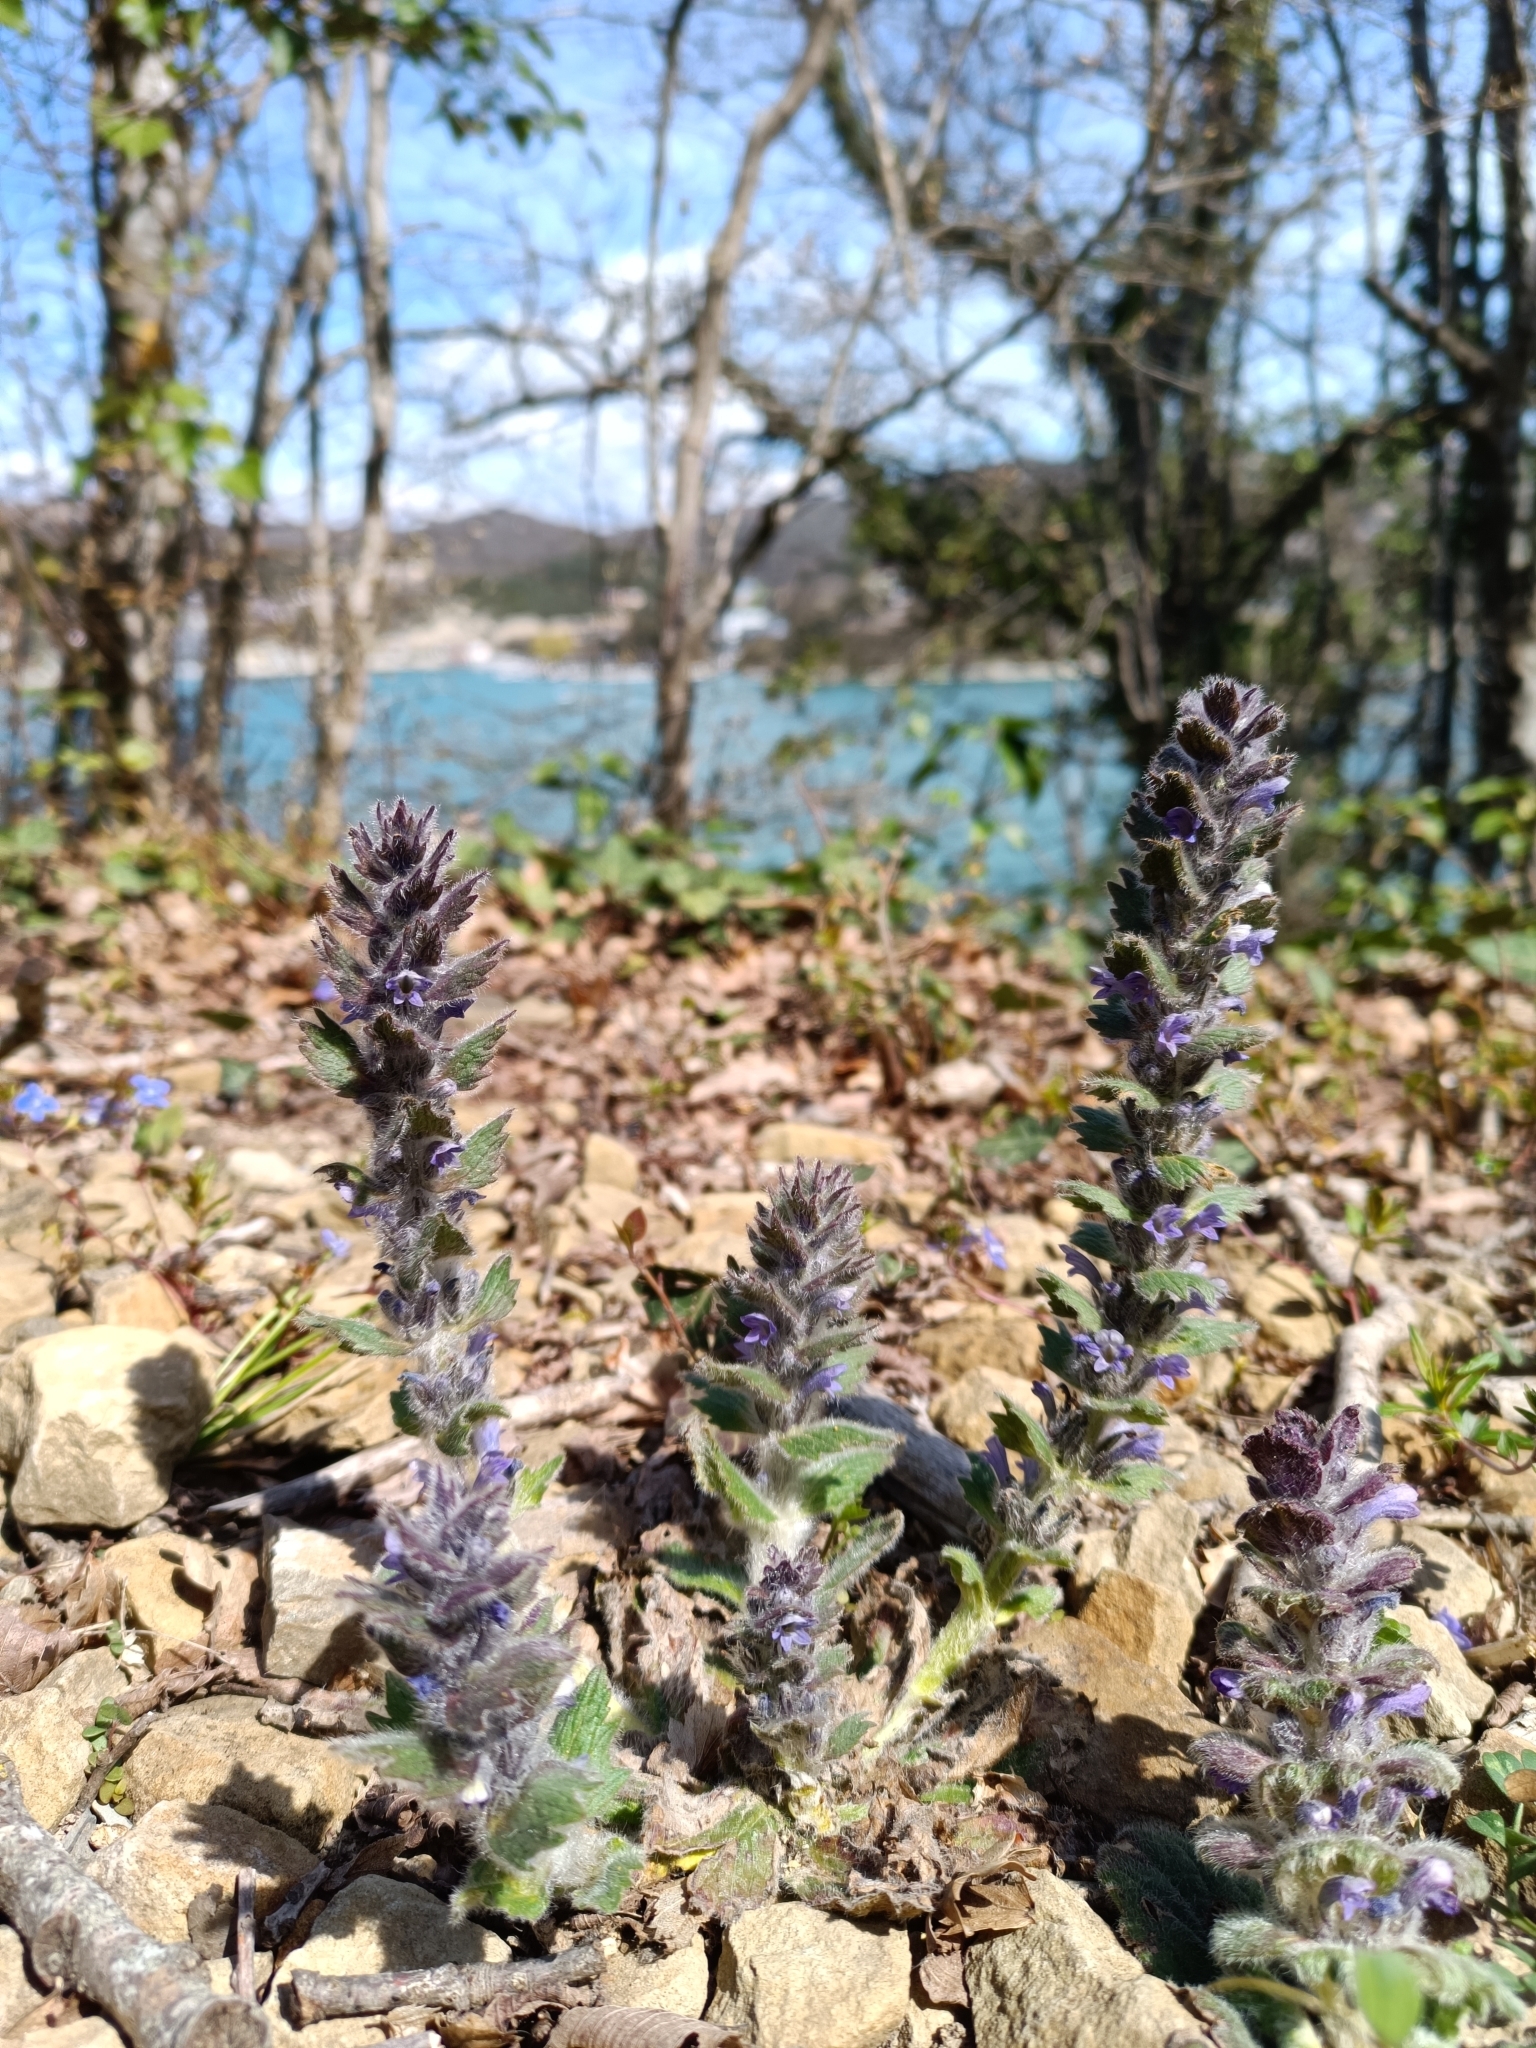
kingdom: Plantae
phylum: Tracheophyta
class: Magnoliopsida
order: Lamiales
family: Lamiaceae
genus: Ajuga
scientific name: Ajuga orientalis
